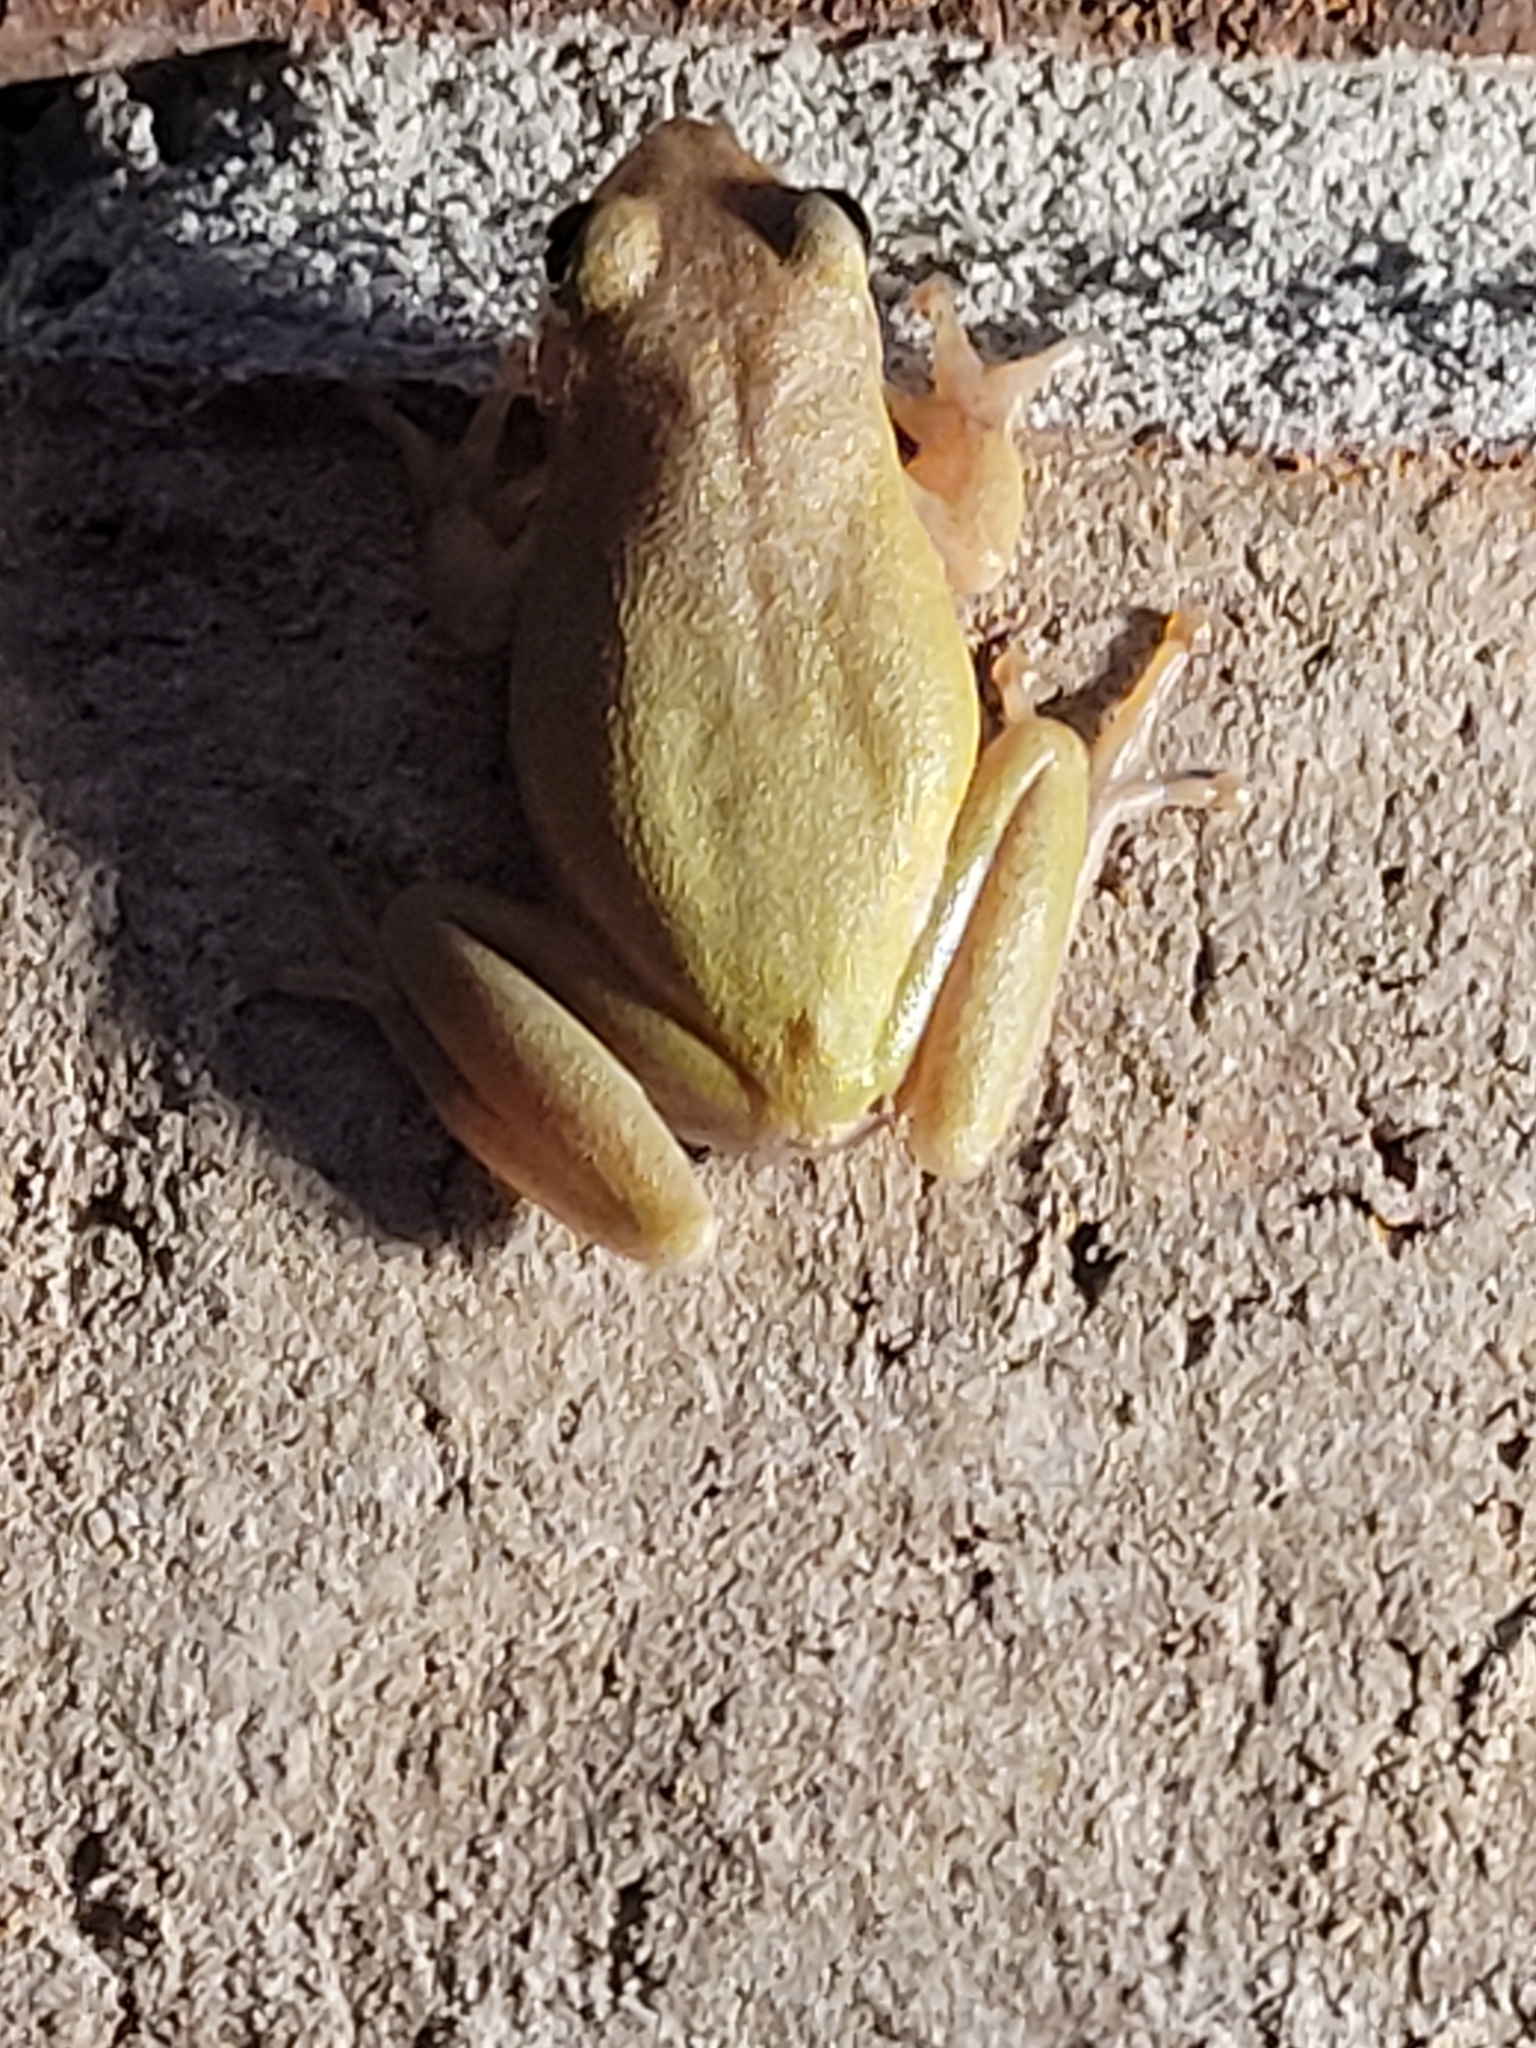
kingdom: Animalia
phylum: Chordata
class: Amphibia
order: Anura
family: Hylidae
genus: Dryophytes
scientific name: Dryophytes squirellus
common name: Squirrel treefrog
